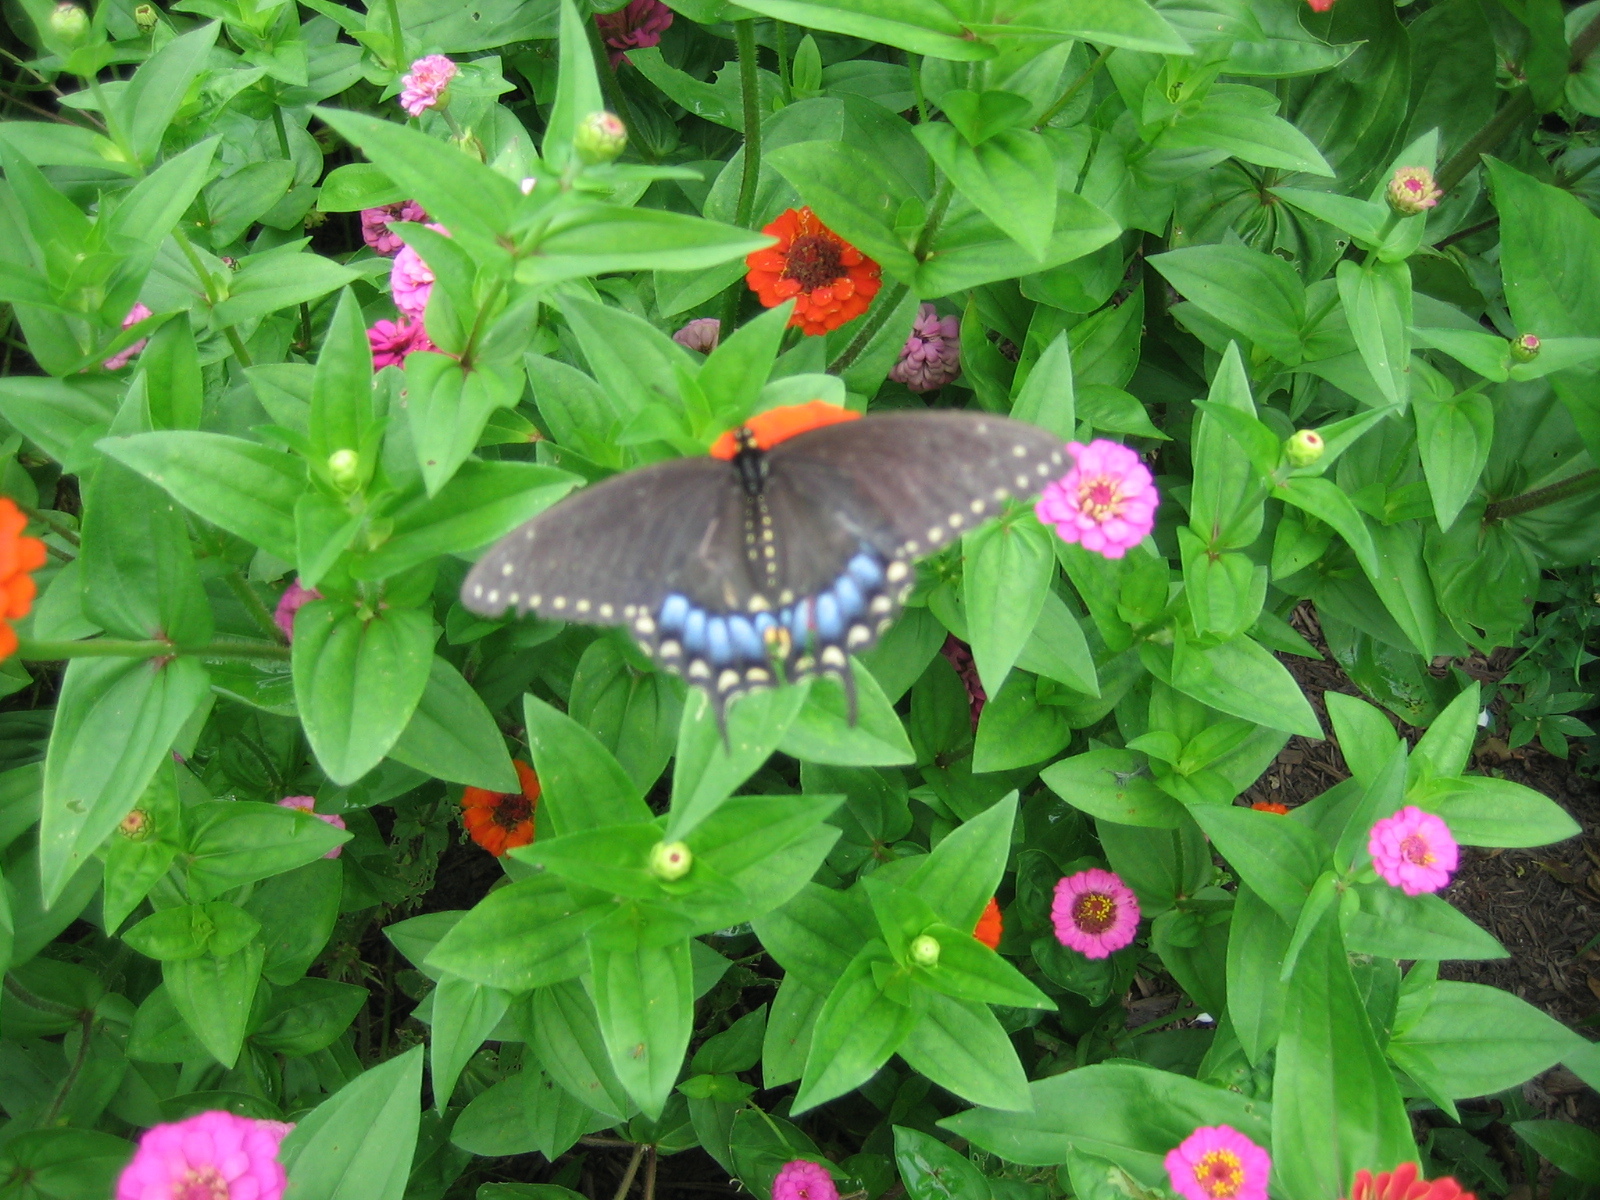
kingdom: Animalia
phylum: Arthropoda
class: Insecta
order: Lepidoptera
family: Papilionidae
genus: Papilio
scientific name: Papilio troilus
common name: Spicebush swallowtail
